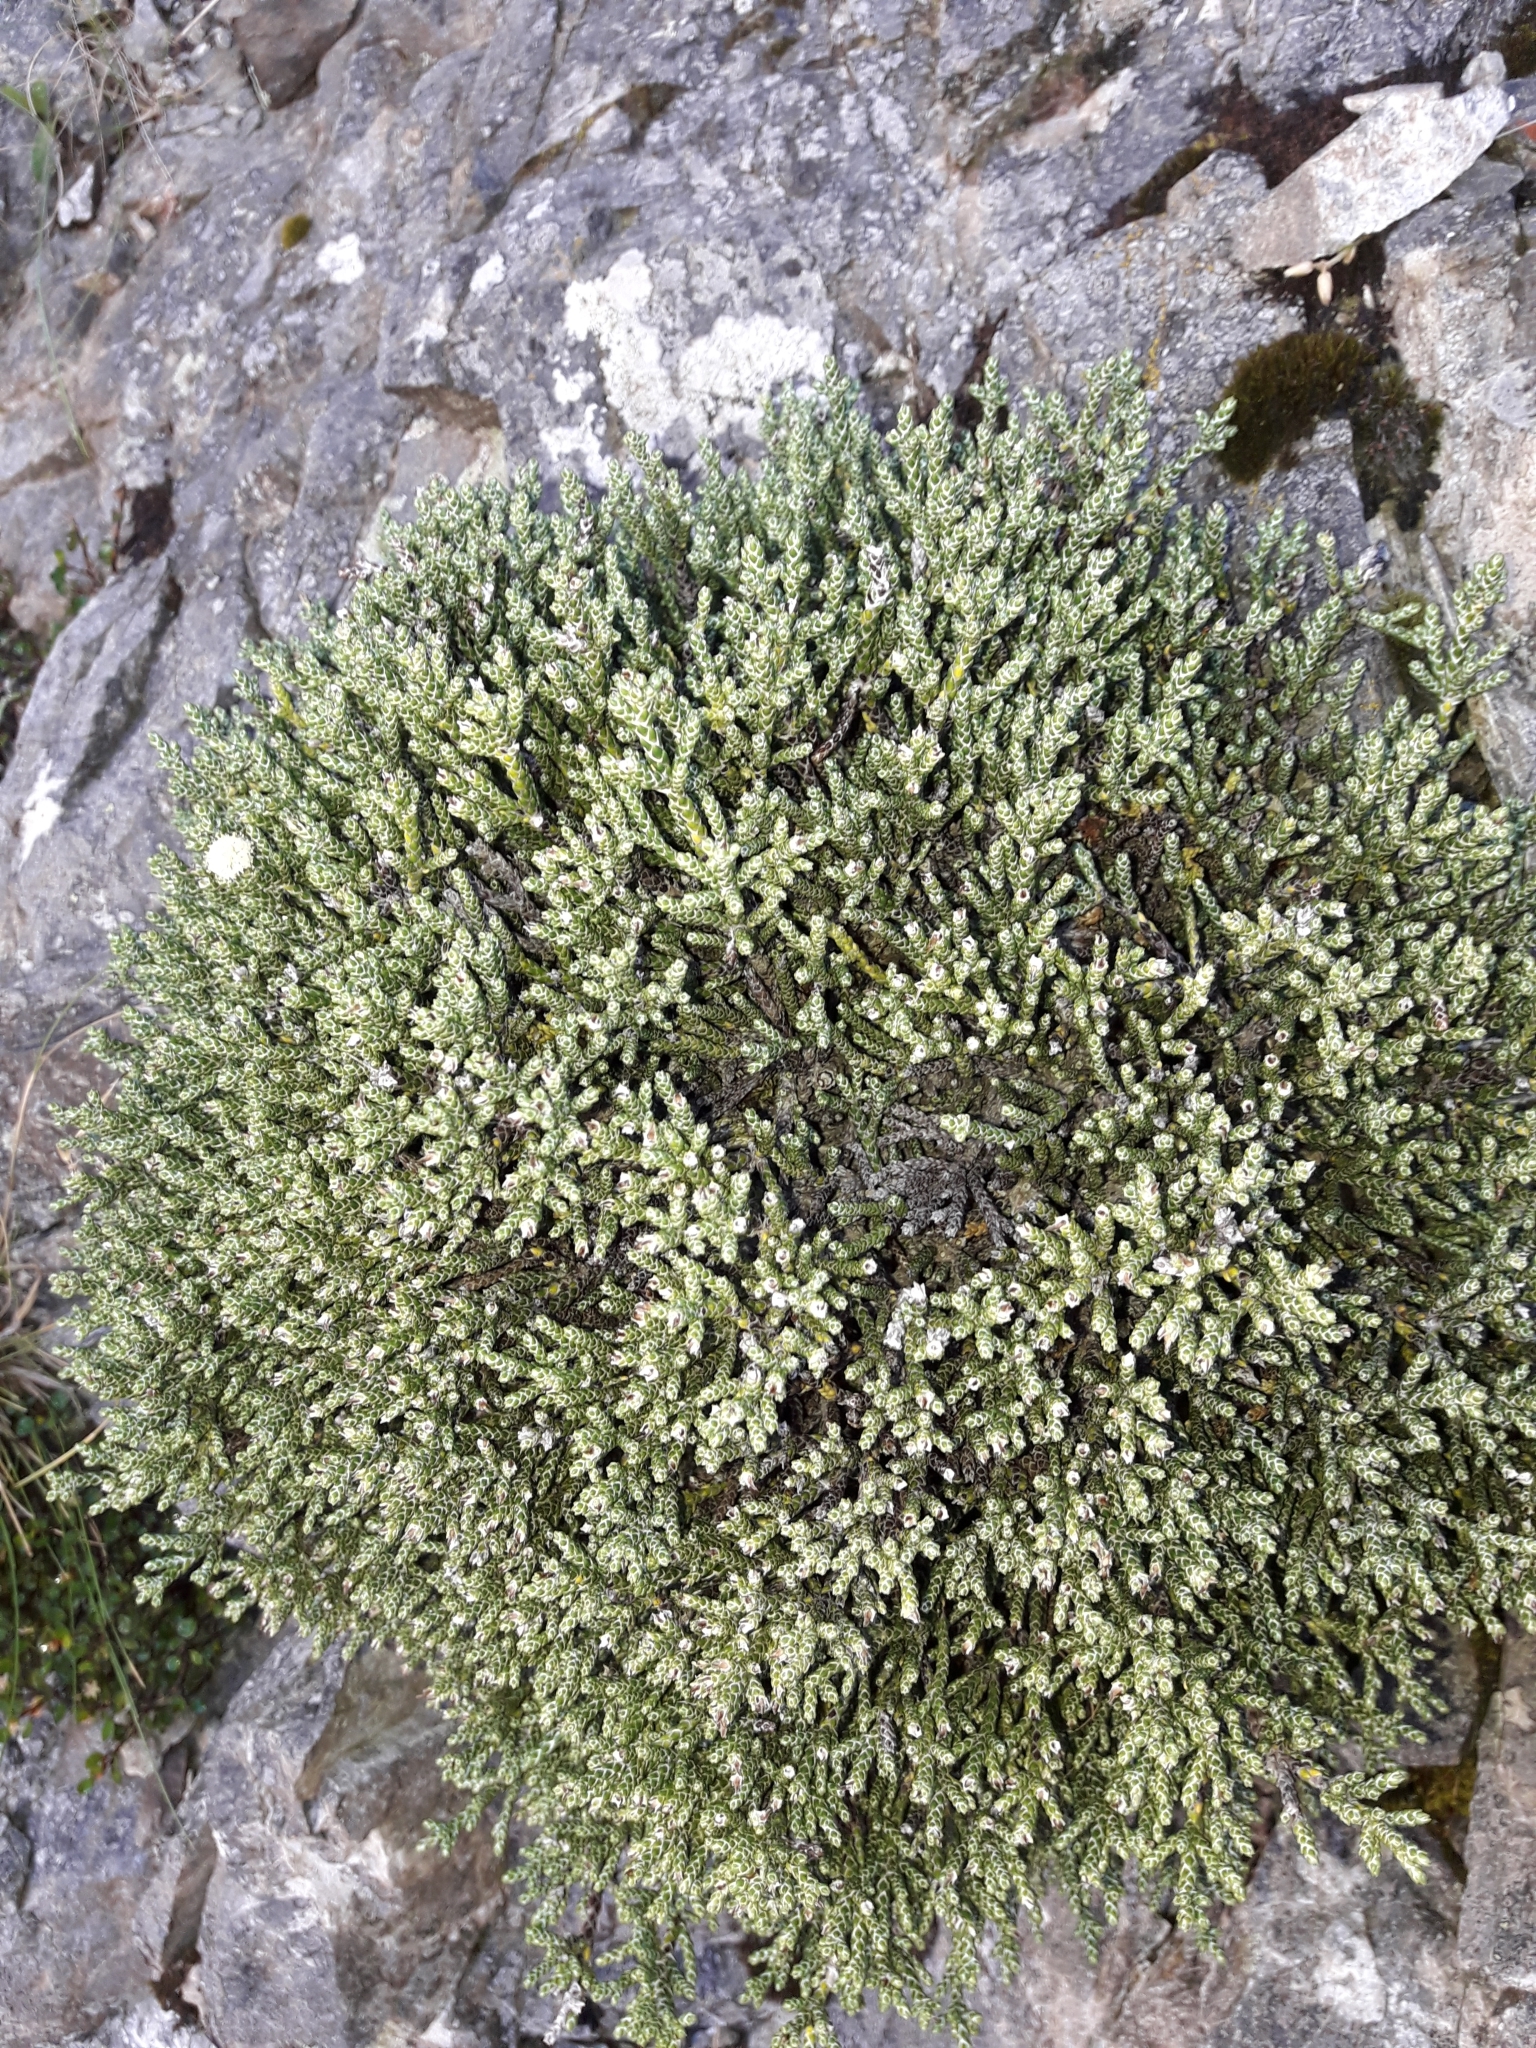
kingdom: Plantae
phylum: Tracheophyta
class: Magnoliopsida
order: Asterales
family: Asteraceae
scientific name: Asteraceae
